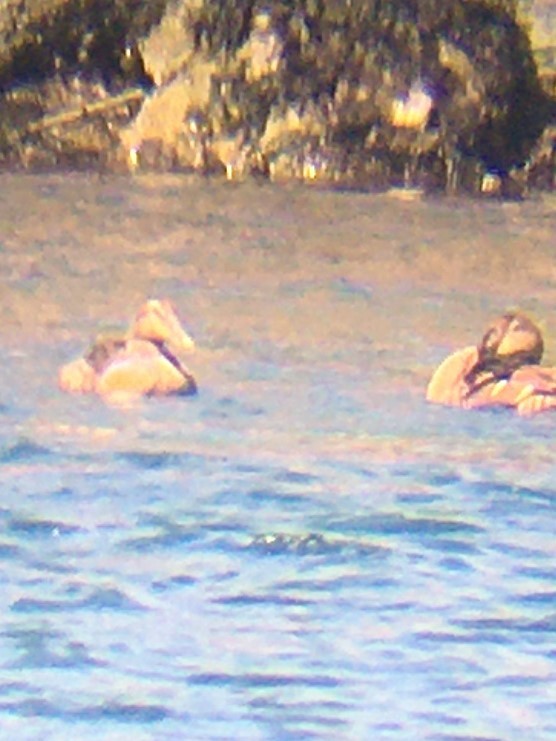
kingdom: Animalia
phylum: Chordata
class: Aves
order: Anseriformes
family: Anatidae
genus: Somateria
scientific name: Somateria mollissima
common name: Common eider
